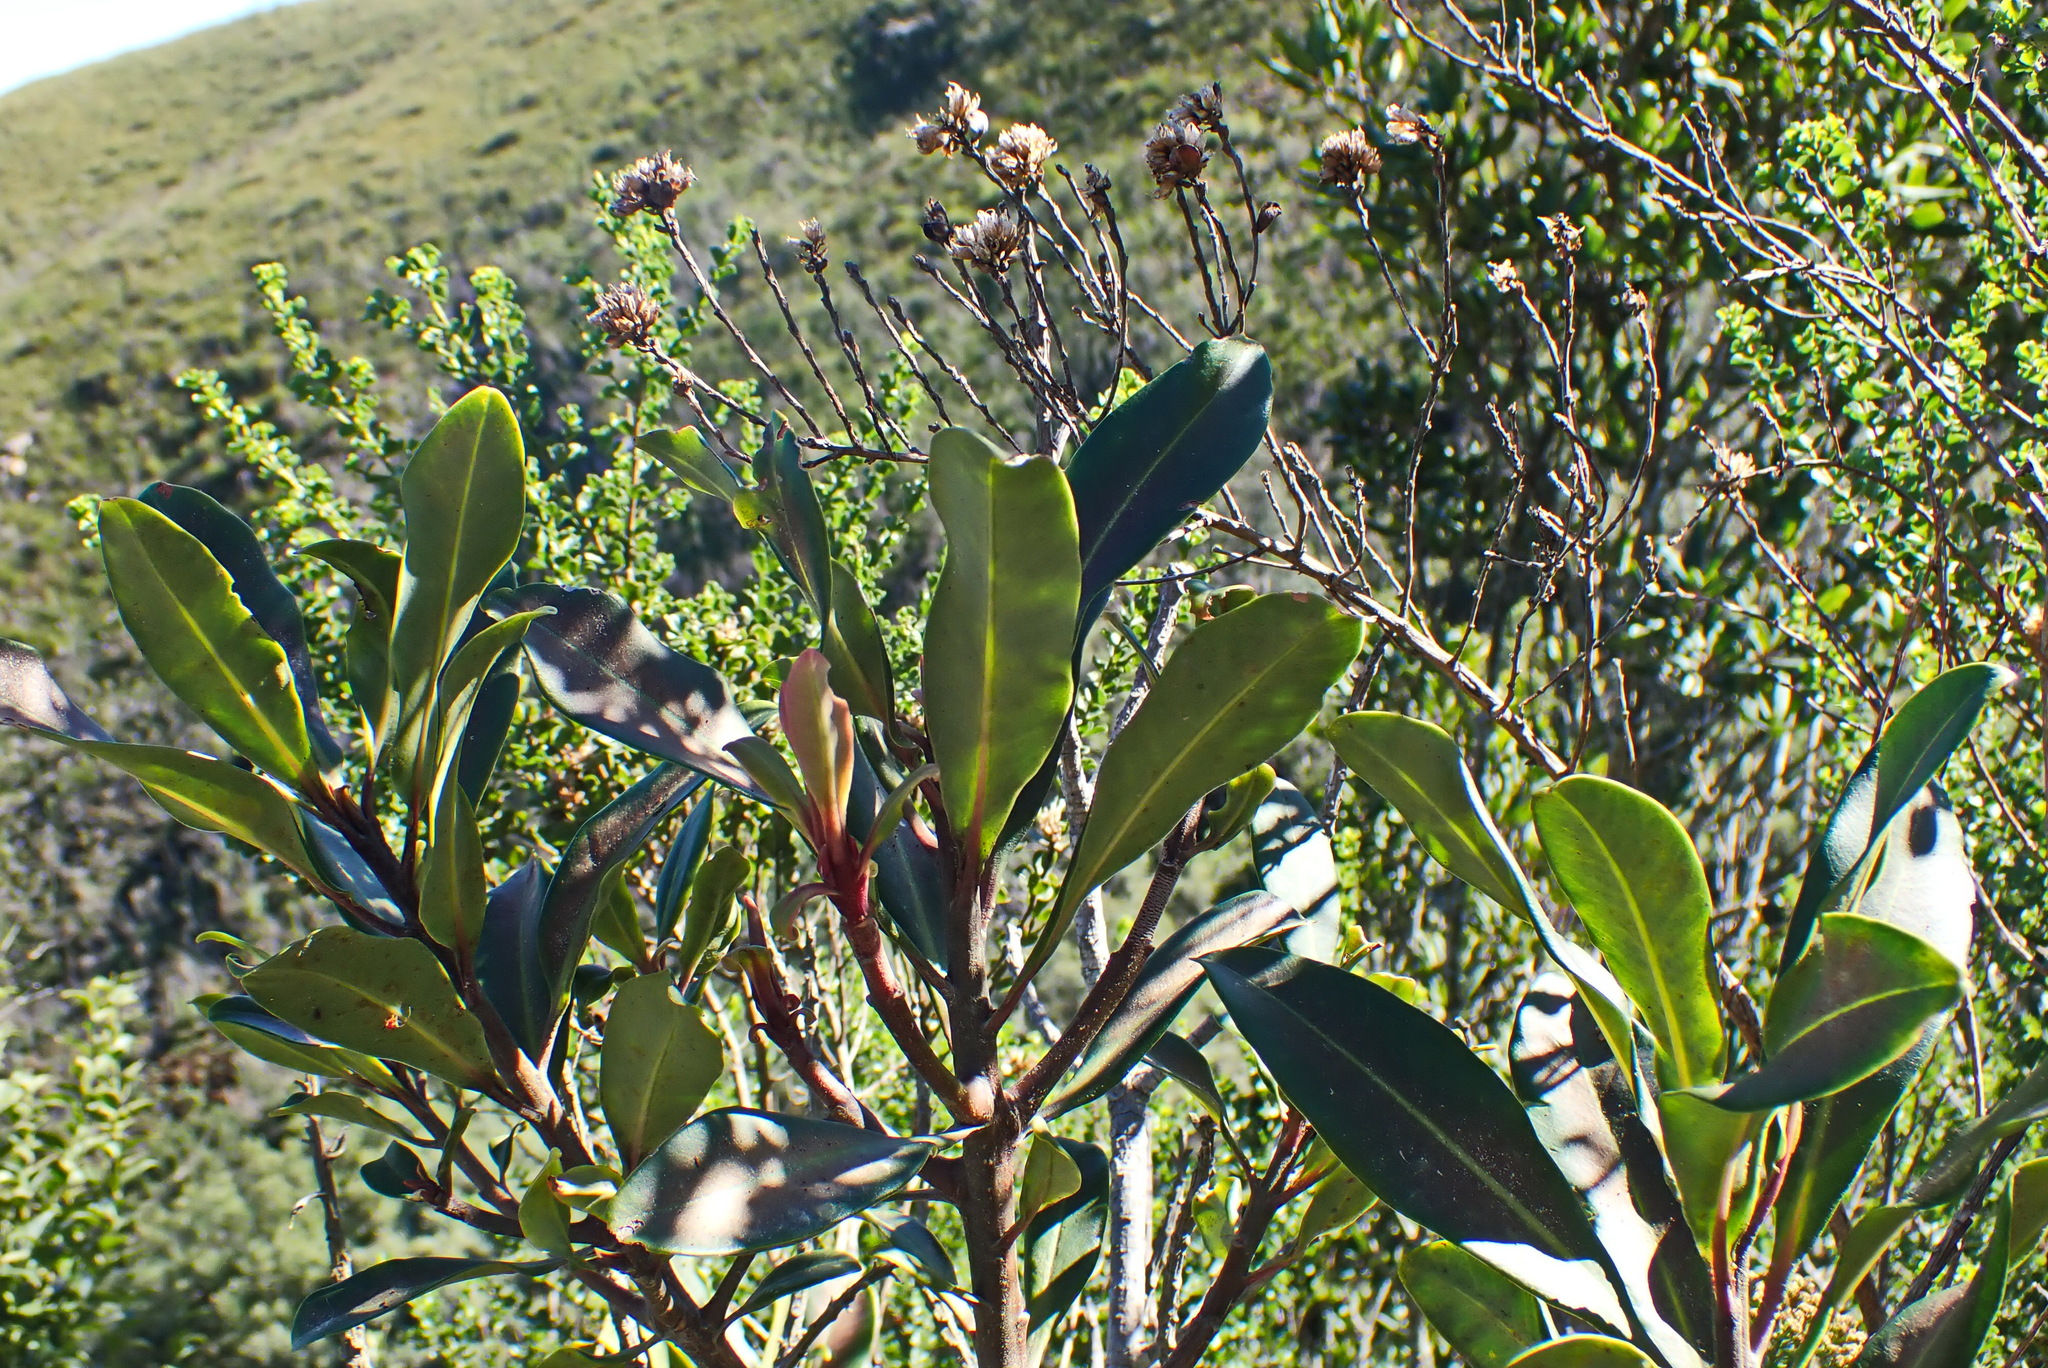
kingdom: Plantae
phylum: Tracheophyta
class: Magnoliopsida
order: Ericales
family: Primulaceae
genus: Myrsine
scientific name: Myrsine melanophloeos
